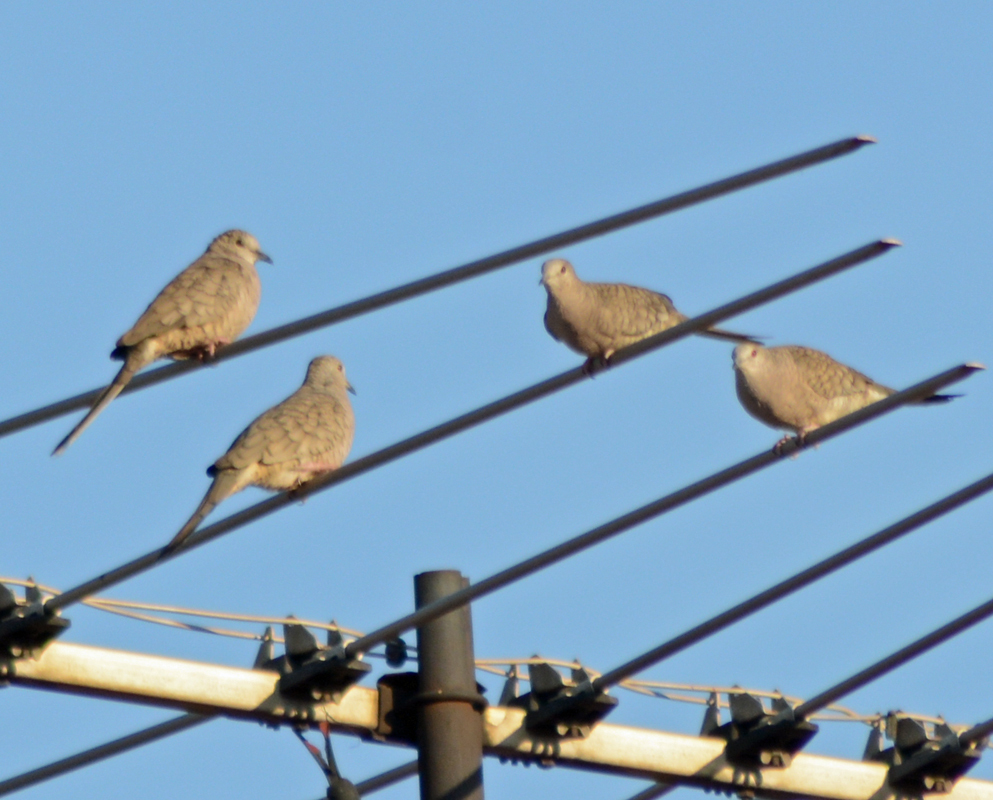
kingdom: Animalia
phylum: Chordata
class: Aves
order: Columbiformes
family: Columbidae
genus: Columbina
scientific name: Columbina inca
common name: Inca dove
